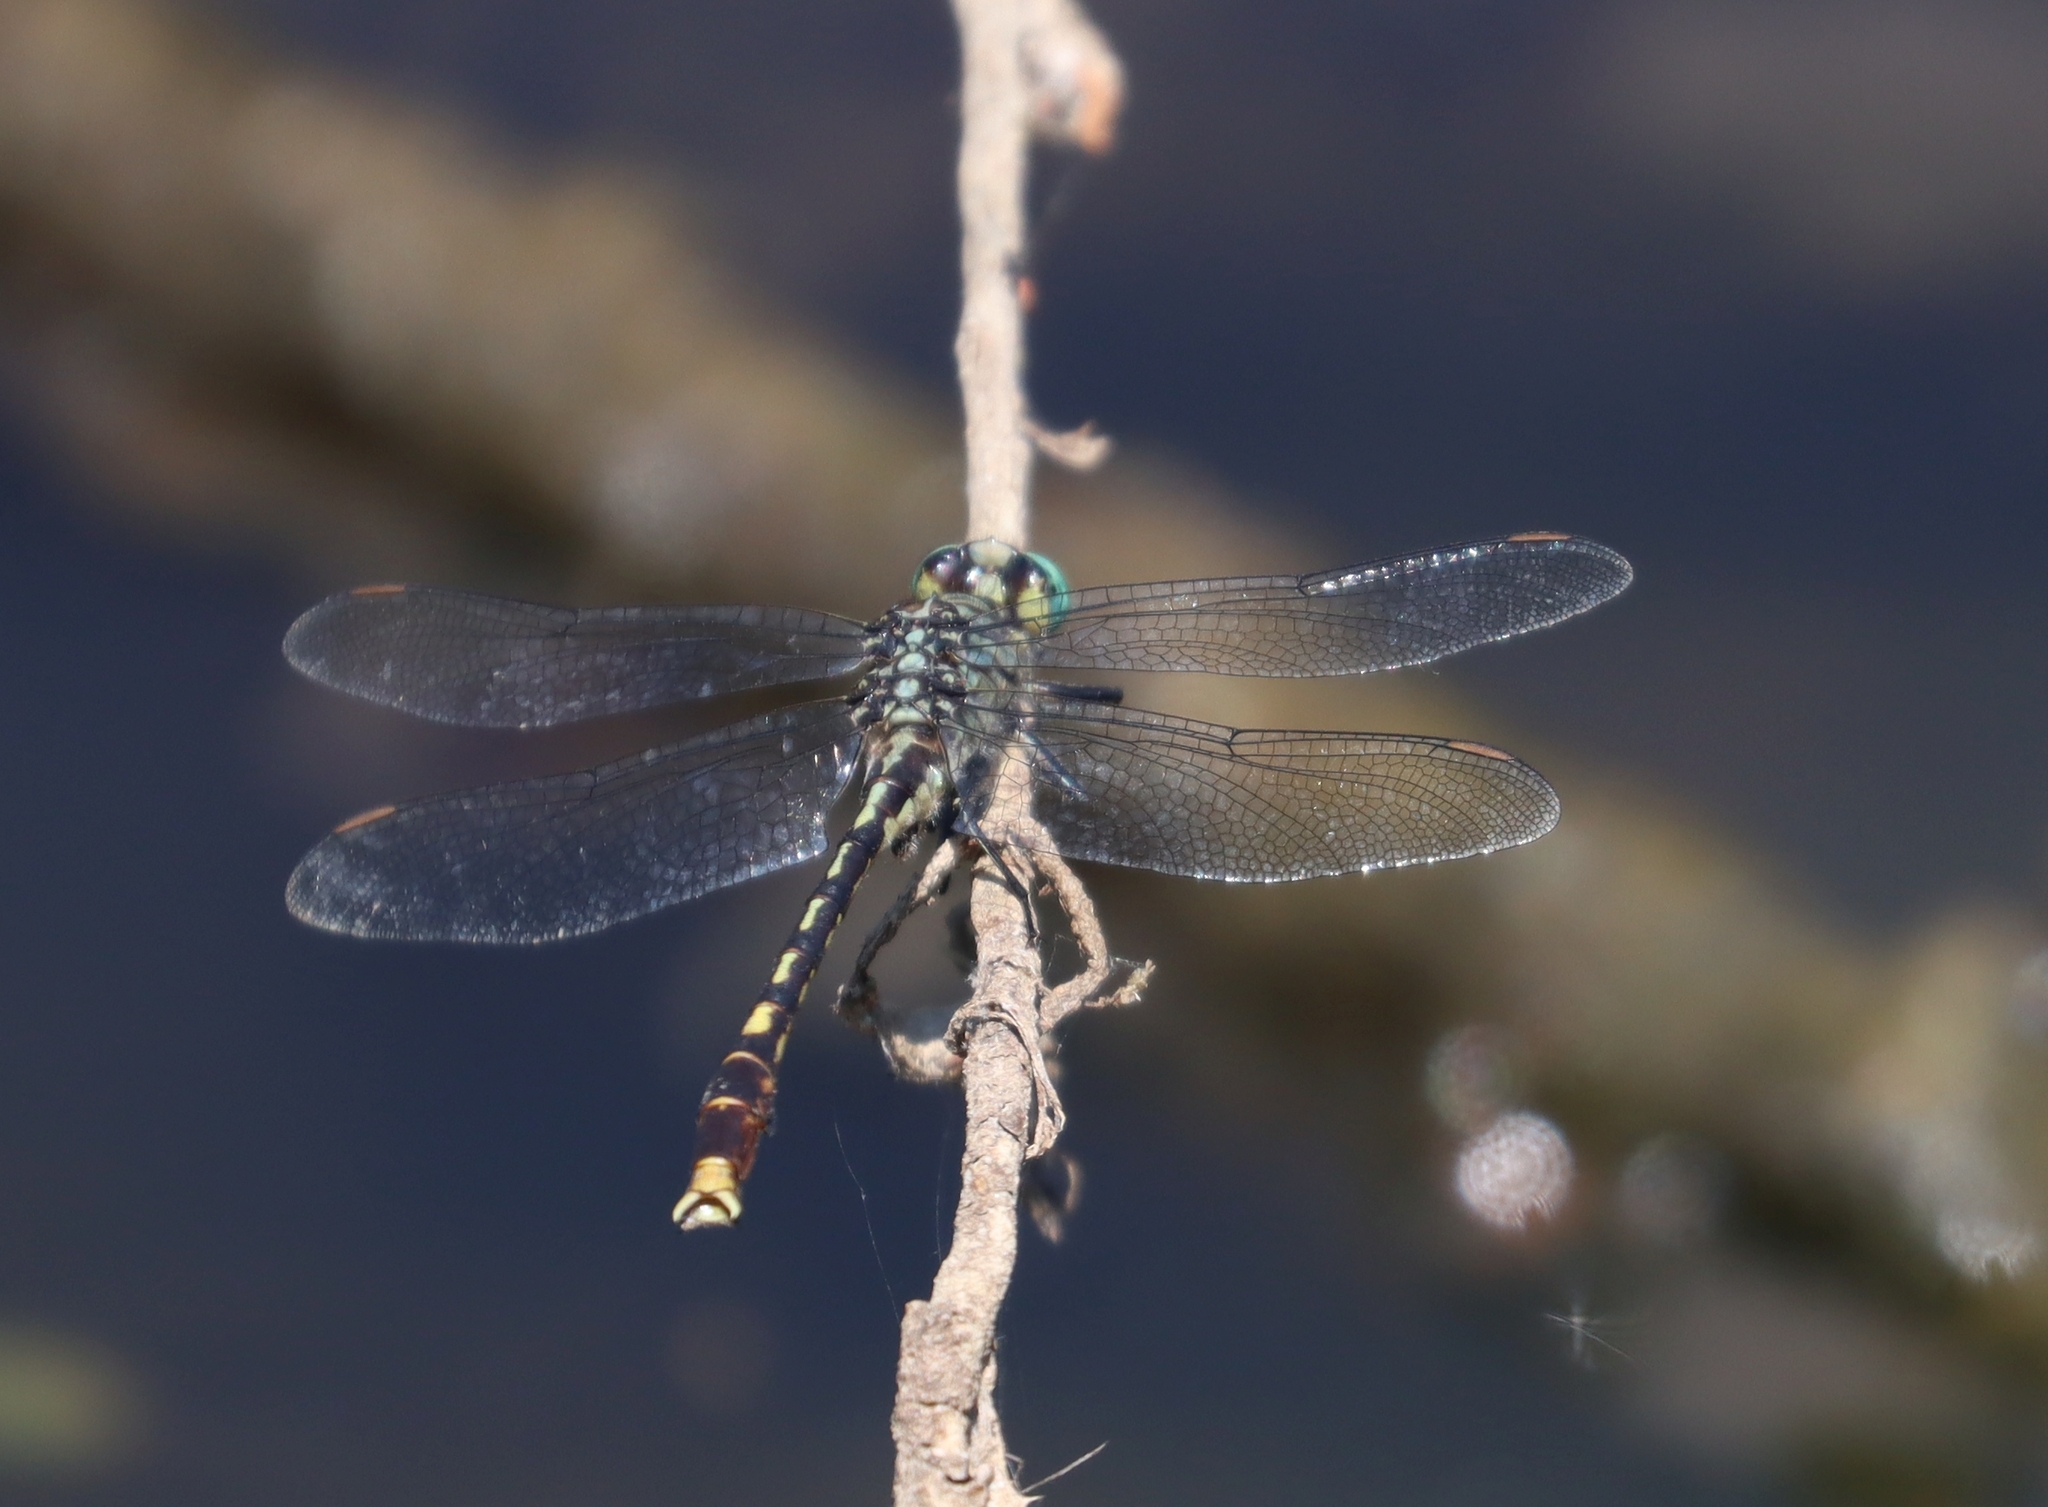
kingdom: Animalia
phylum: Arthropoda
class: Insecta
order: Odonata
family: Gomphidae
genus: Arigomphus
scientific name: Arigomphus villosipes
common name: Unicorn clubtail
